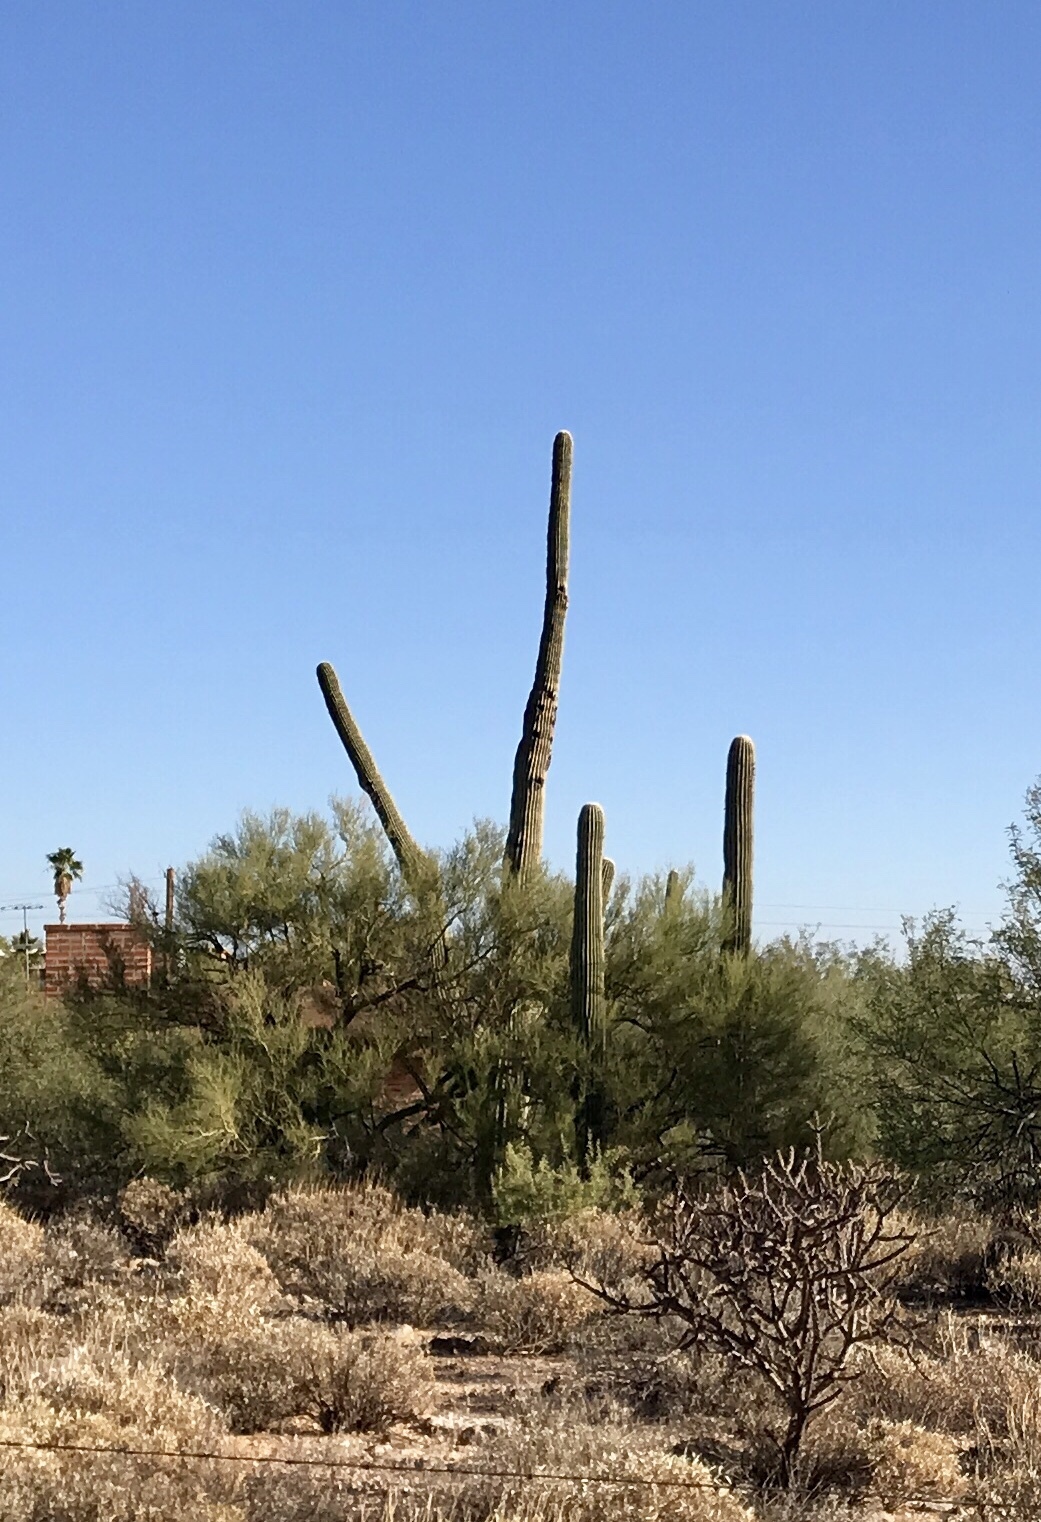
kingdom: Plantae
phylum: Tracheophyta
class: Magnoliopsida
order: Caryophyllales
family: Cactaceae
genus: Carnegiea
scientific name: Carnegiea gigantea
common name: Saguaro
